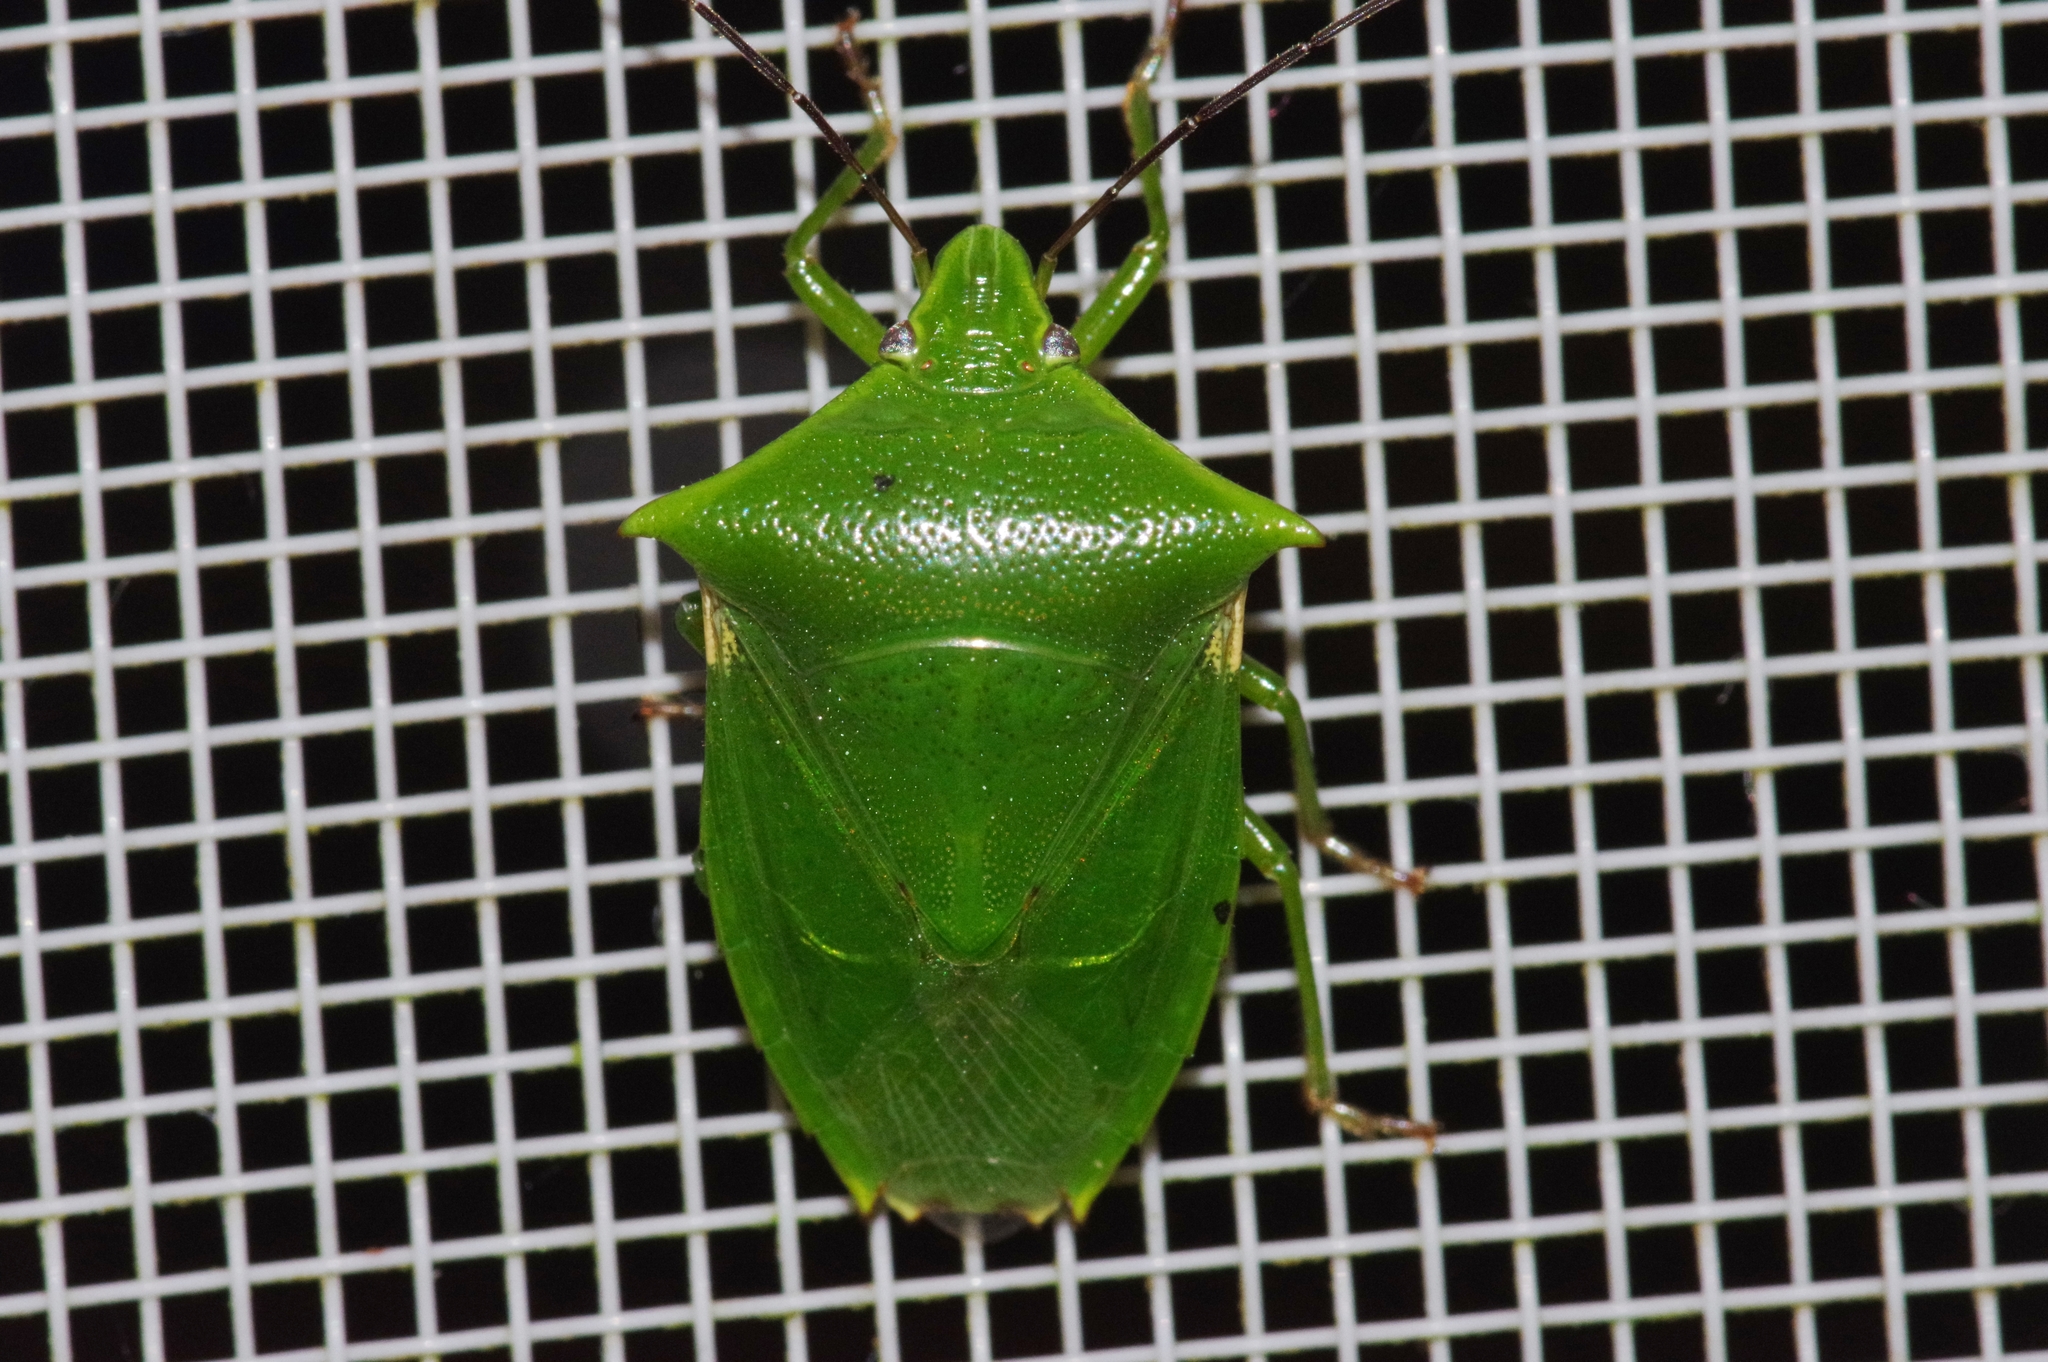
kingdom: Animalia
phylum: Arthropoda
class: Insecta
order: Hemiptera
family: Pentatomidae
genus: Vitellus
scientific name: Vitellus
